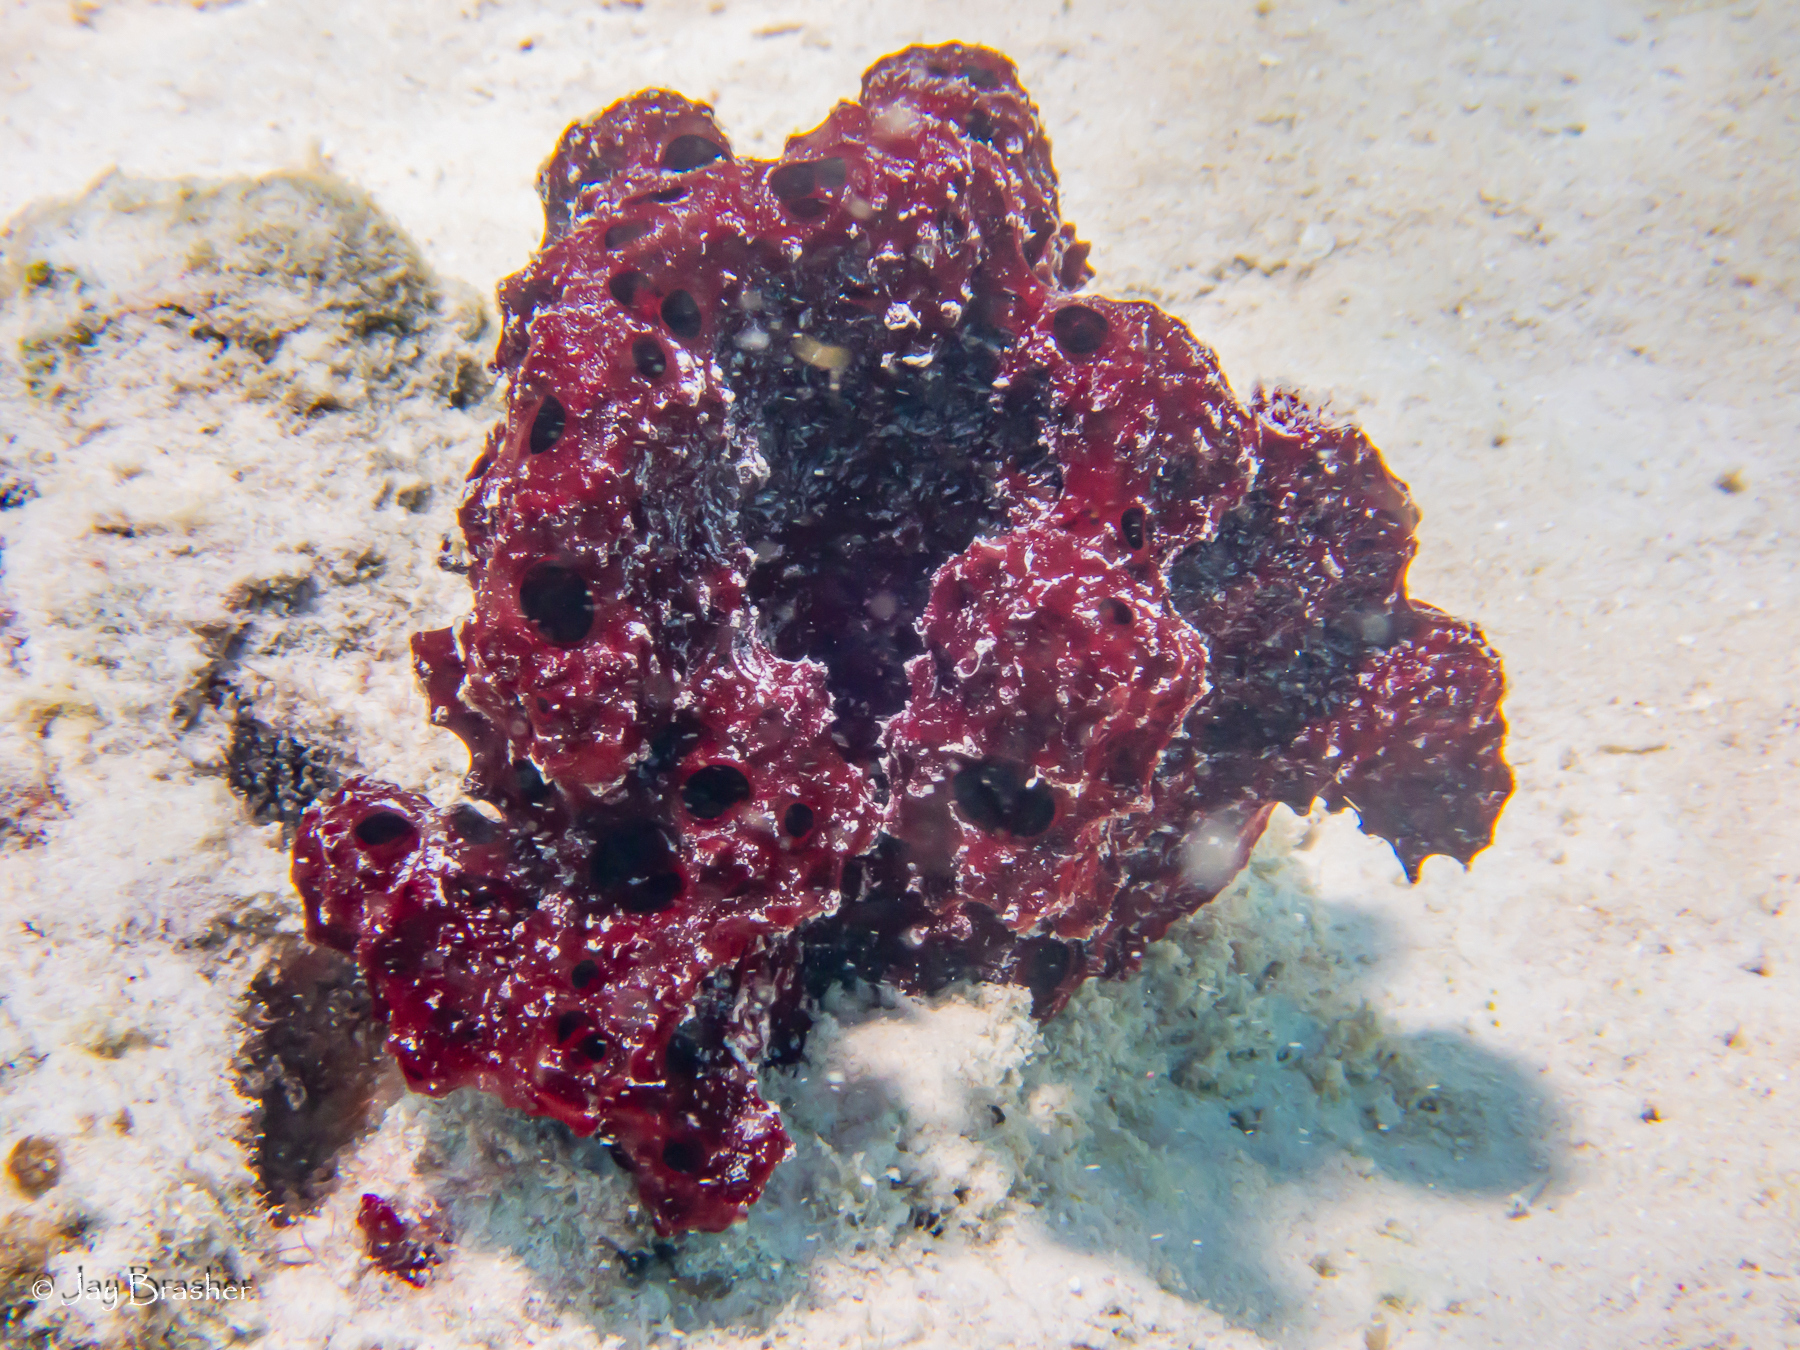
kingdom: Animalia
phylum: Porifera
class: Demospongiae
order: Poecilosclerida
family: Microcionidae
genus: Pandaros
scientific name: Pandaros acanthifolium
